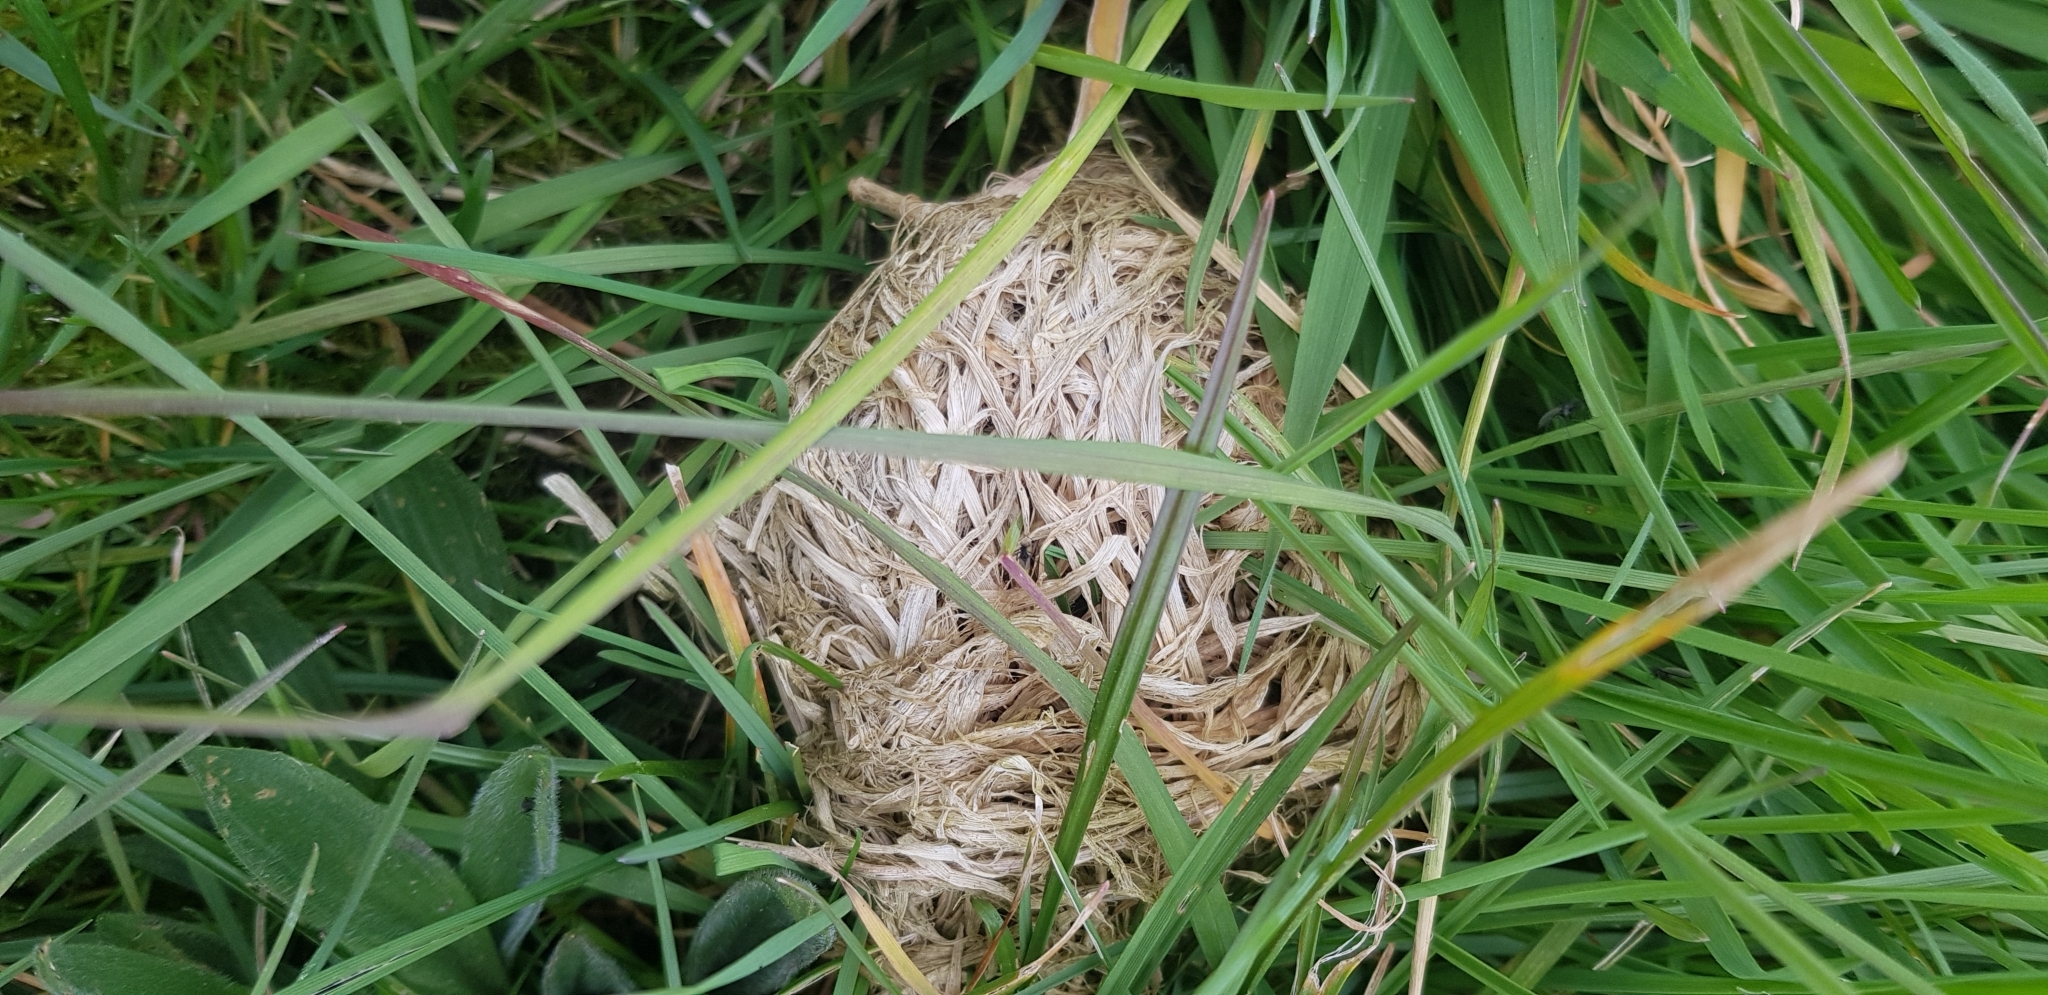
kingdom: Animalia
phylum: Chordata
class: Mammalia
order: Rodentia
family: Muridae
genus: Micromys
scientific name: Micromys minutus
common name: Harvest mouse
